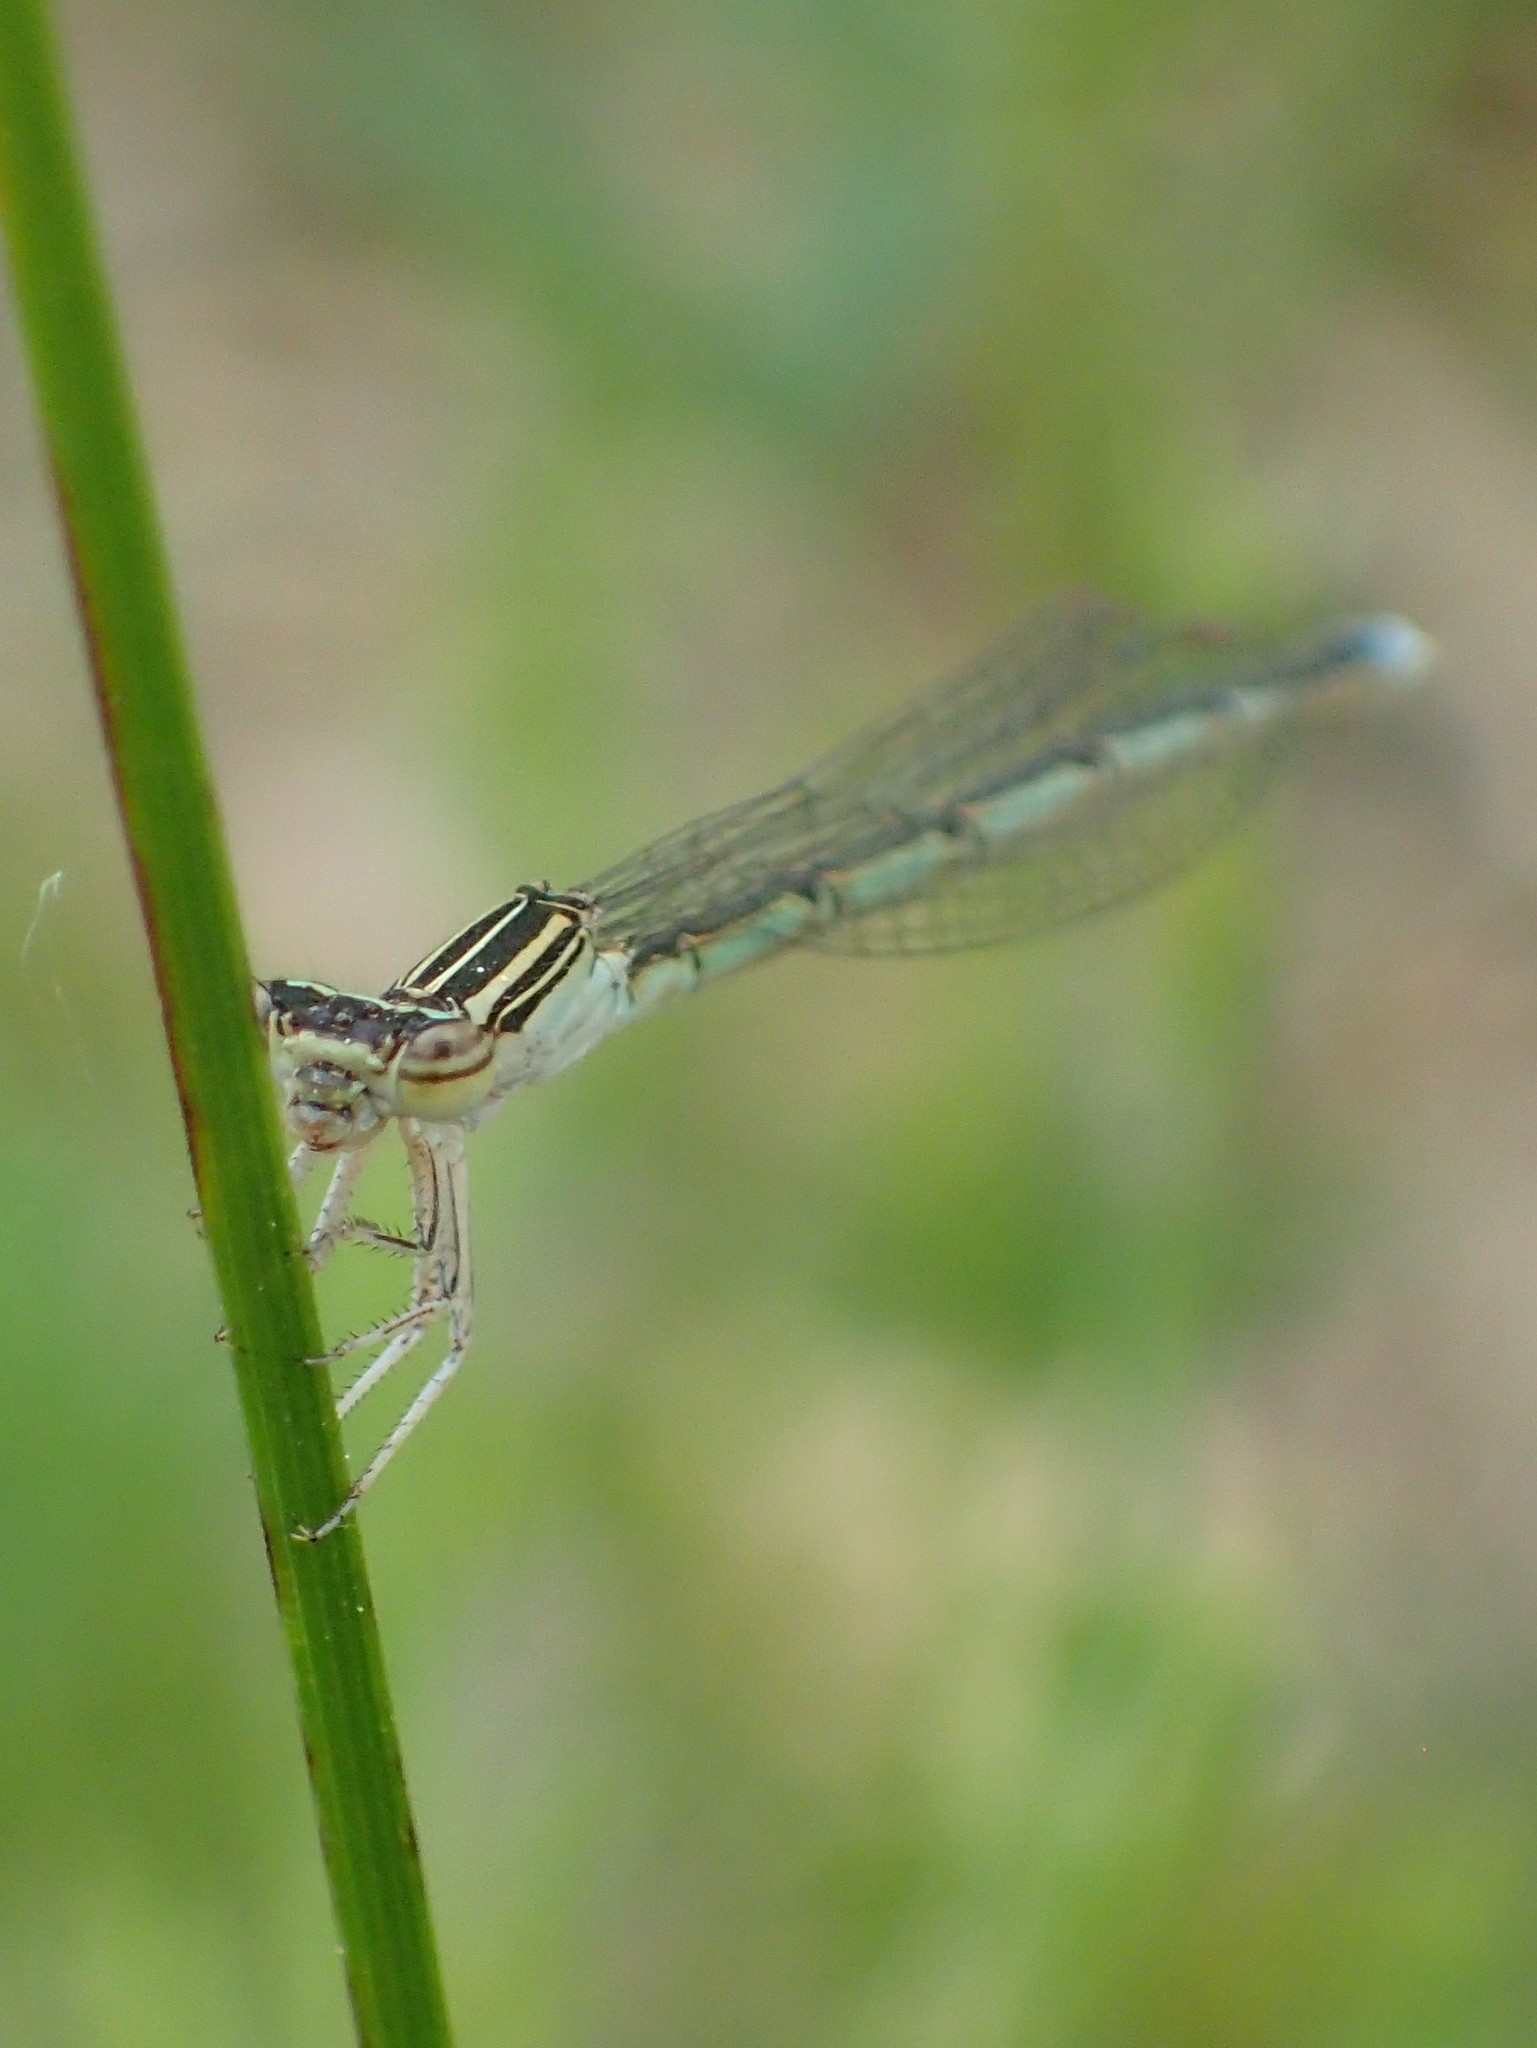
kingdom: Animalia
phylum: Arthropoda
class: Insecta
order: Odonata
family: Coenagrionidae
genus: Enallagma
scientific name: Enallagma basidens
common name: Double-striped bluet
